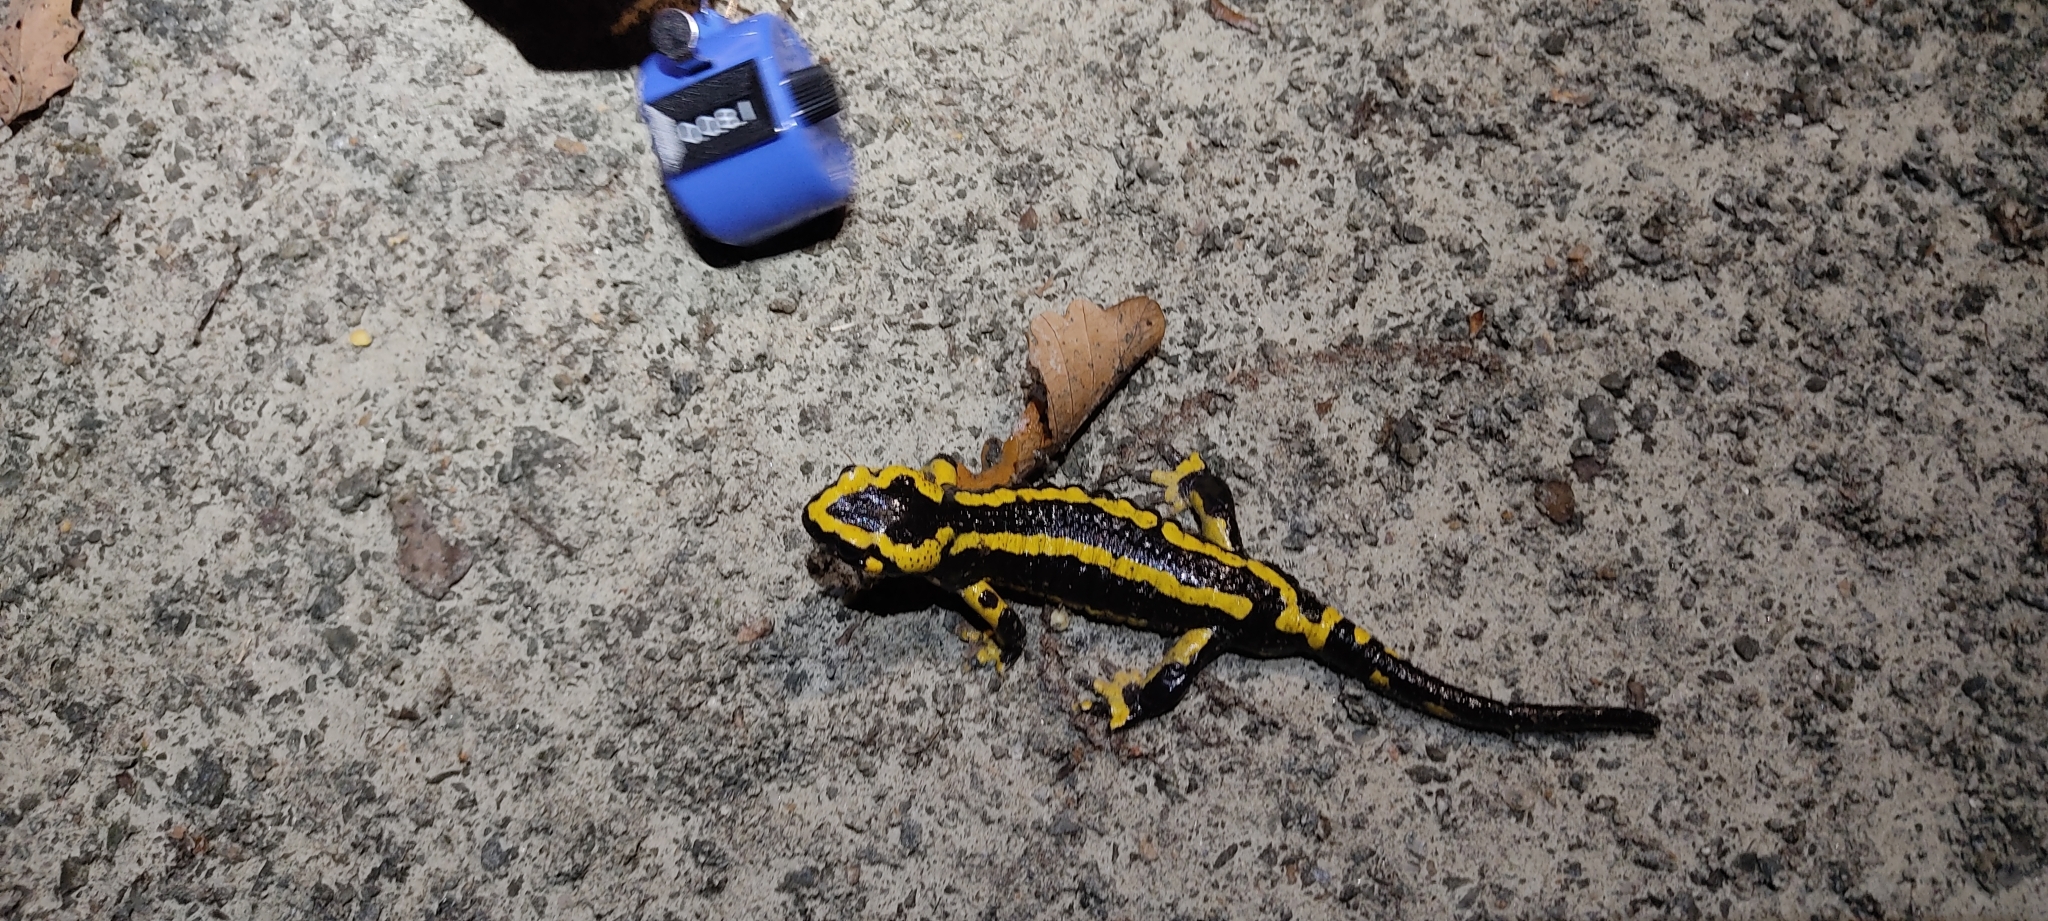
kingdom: Animalia
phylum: Chordata
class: Amphibia
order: Caudata
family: Salamandridae
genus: Salamandra
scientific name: Salamandra salamandra
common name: Fire salamander
